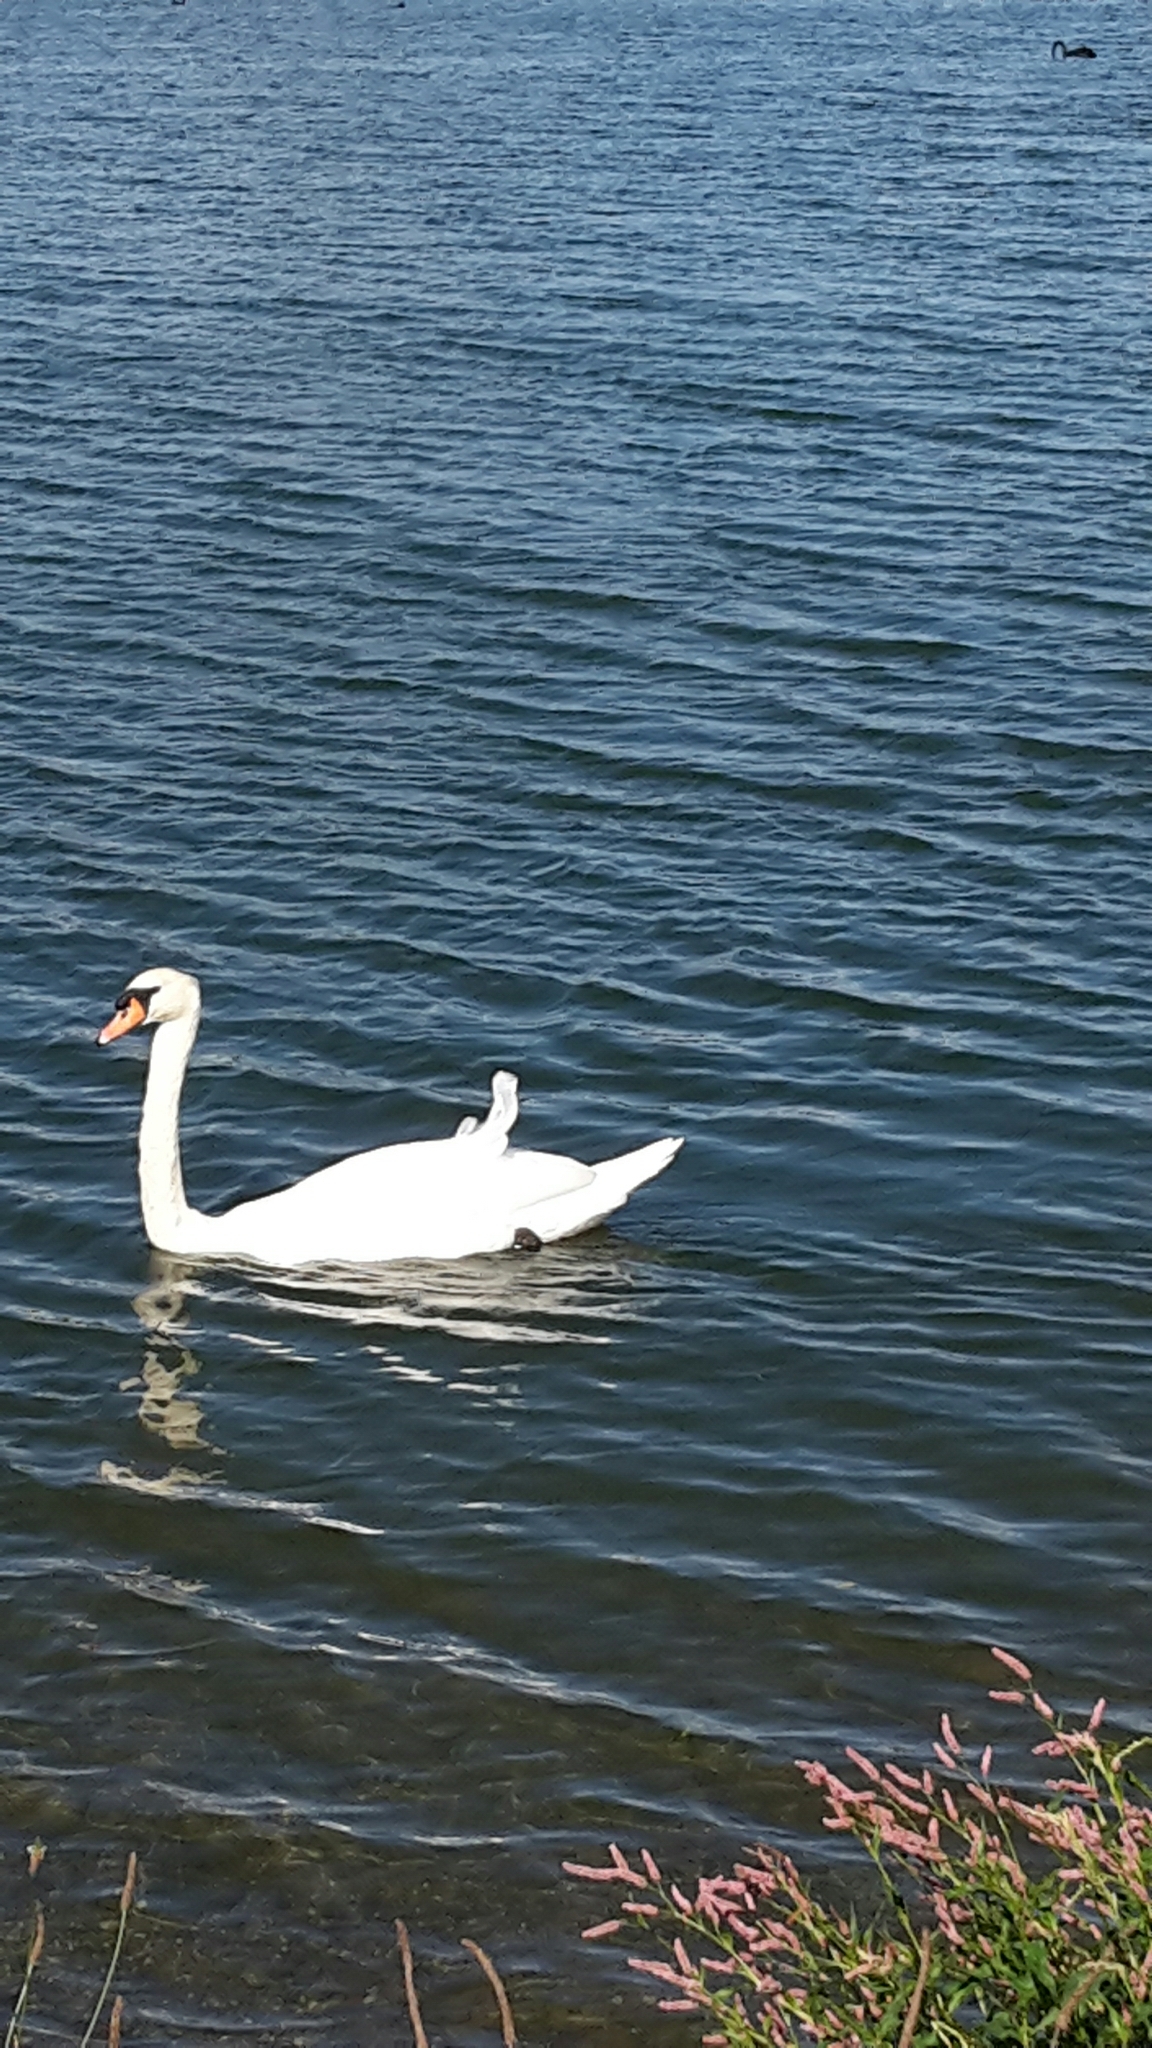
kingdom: Animalia
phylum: Chordata
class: Aves
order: Anseriformes
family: Anatidae
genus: Cygnus
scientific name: Cygnus olor
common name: Mute swan
